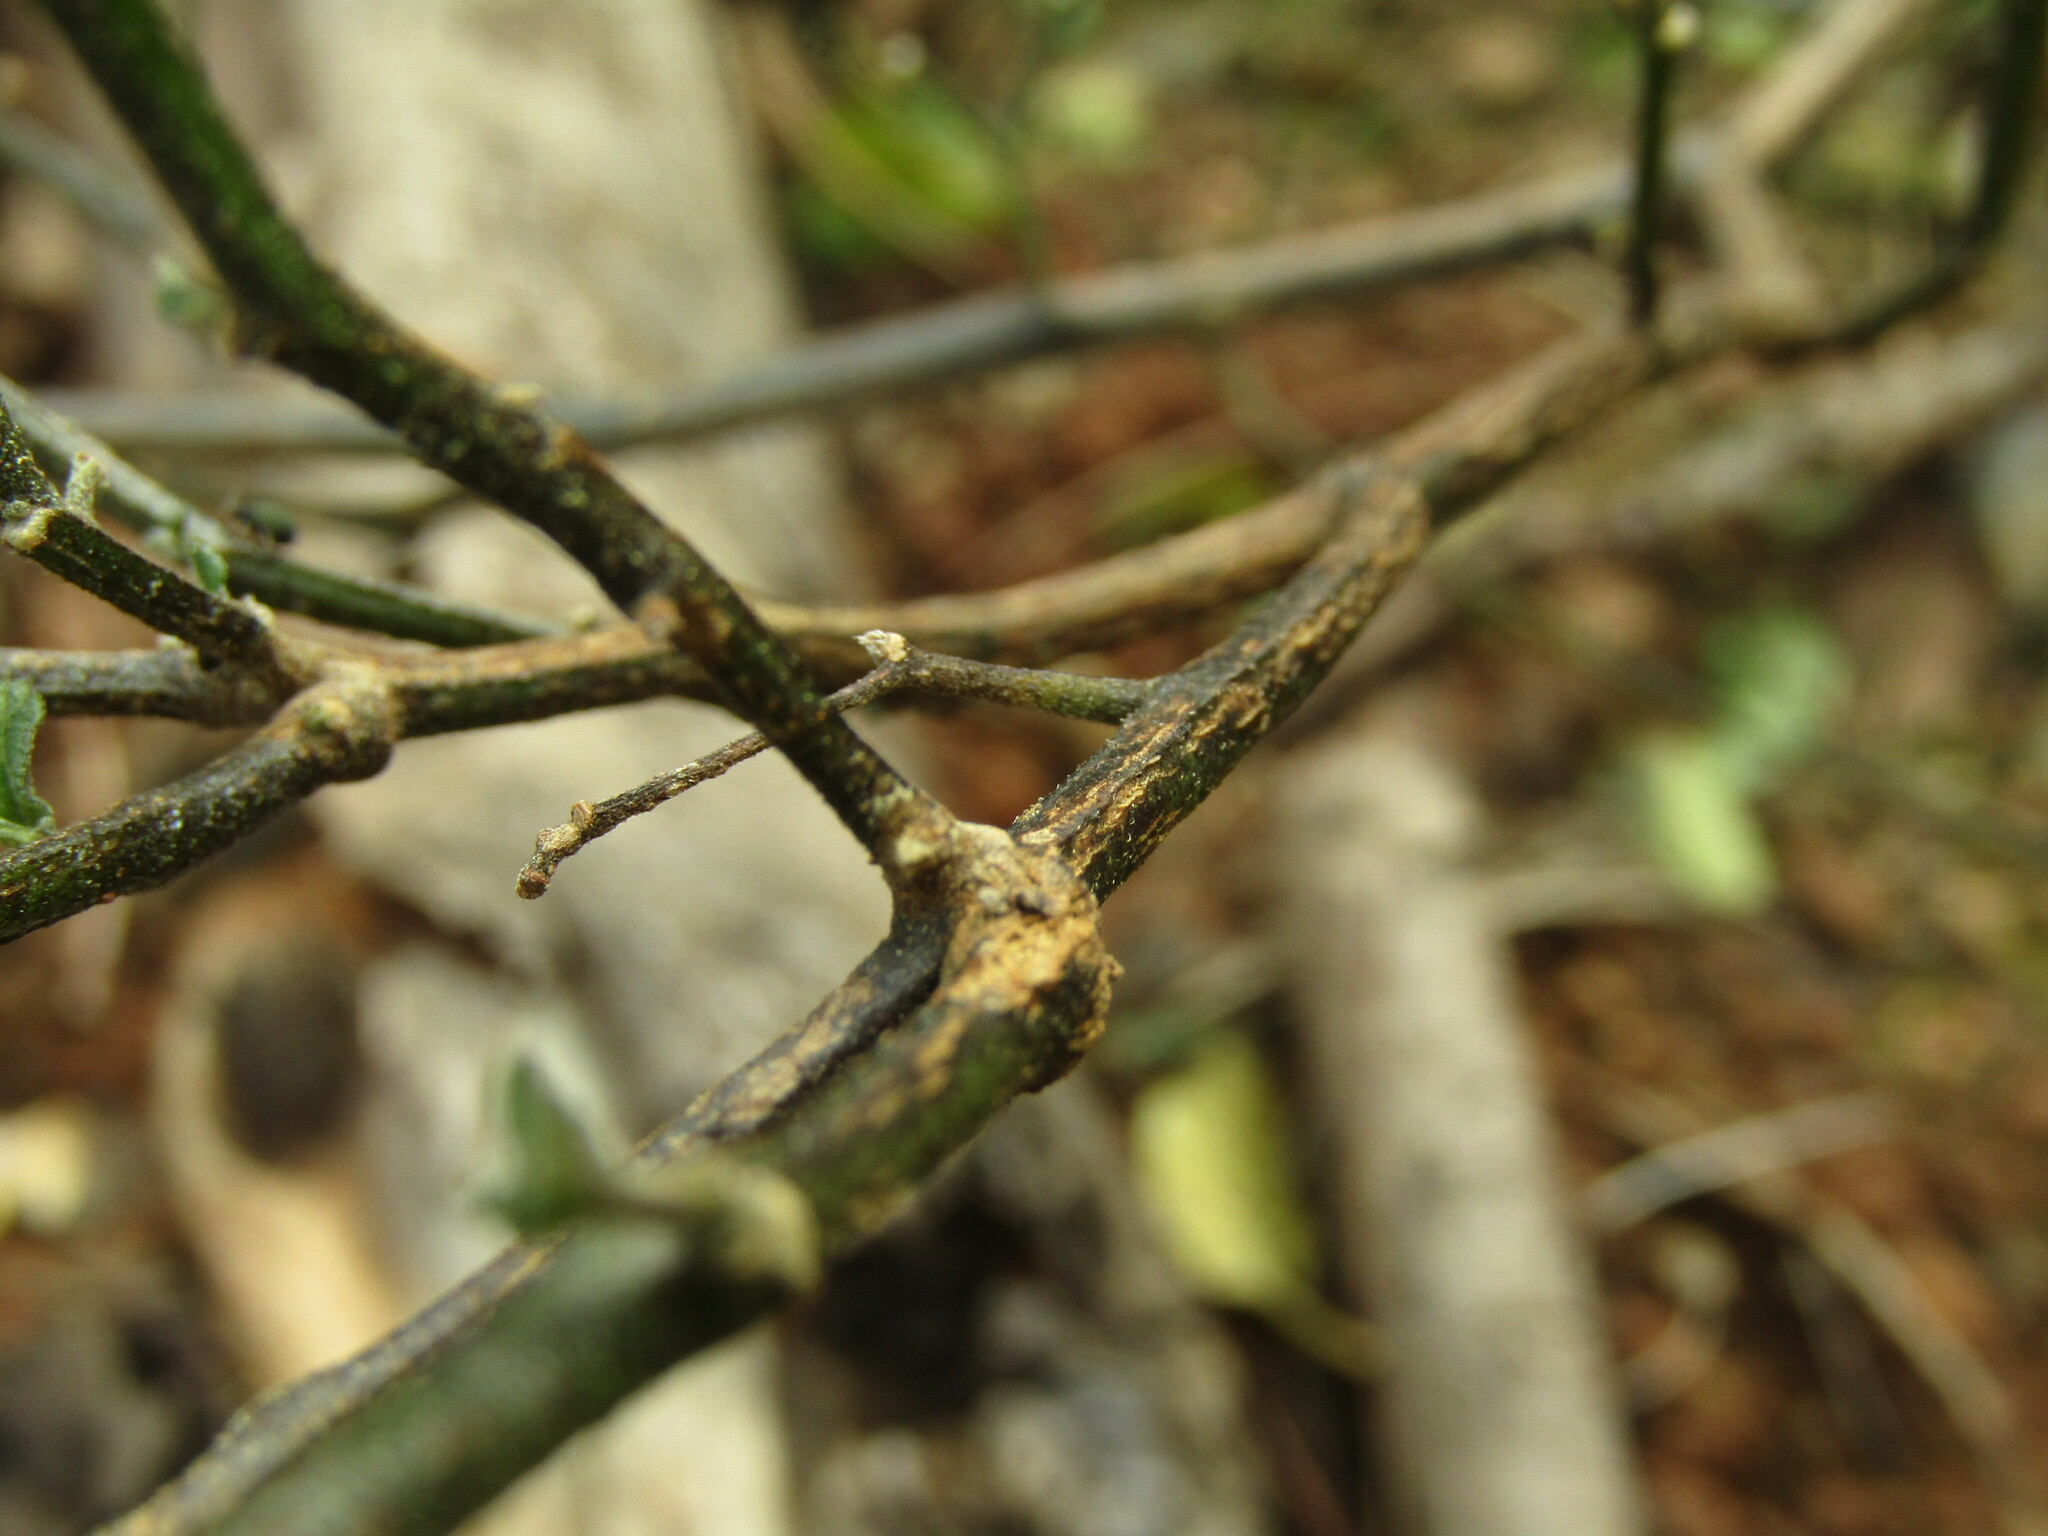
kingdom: Plantae
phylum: Tracheophyta
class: Magnoliopsida
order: Solanales
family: Solanaceae
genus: Solanum
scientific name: Solanum furcatum
